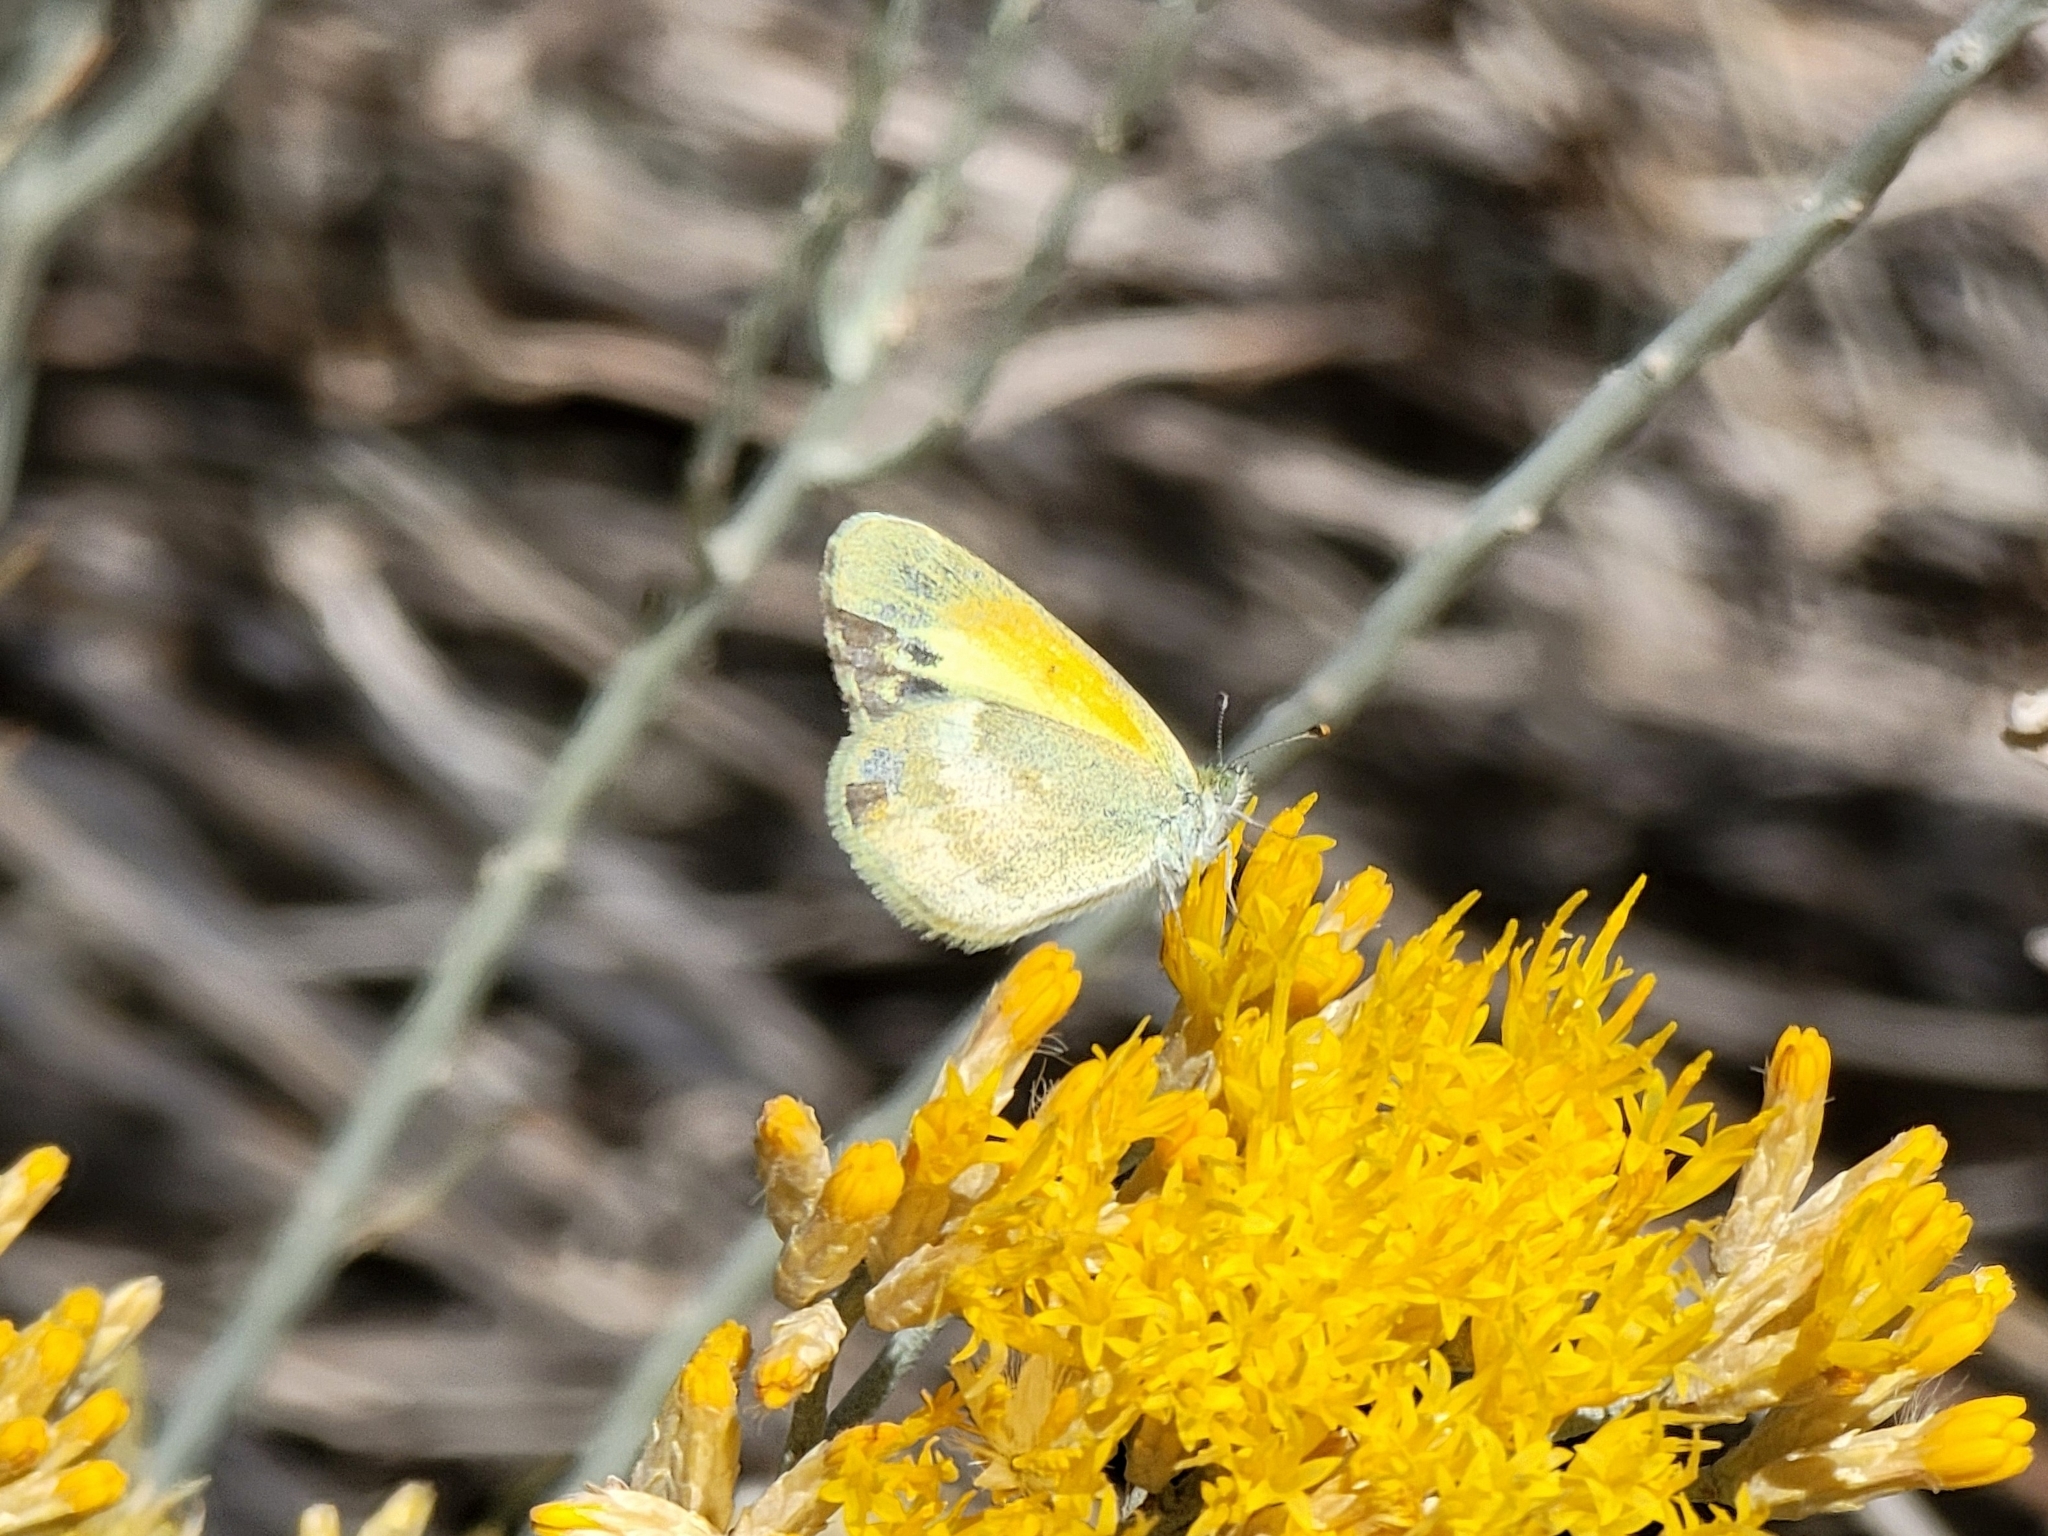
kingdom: Animalia
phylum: Arthropoda
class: Insecta
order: Lepidoptera
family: Pieridae
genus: Nathalis
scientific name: Nathalis iole
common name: Dainty sulphur
